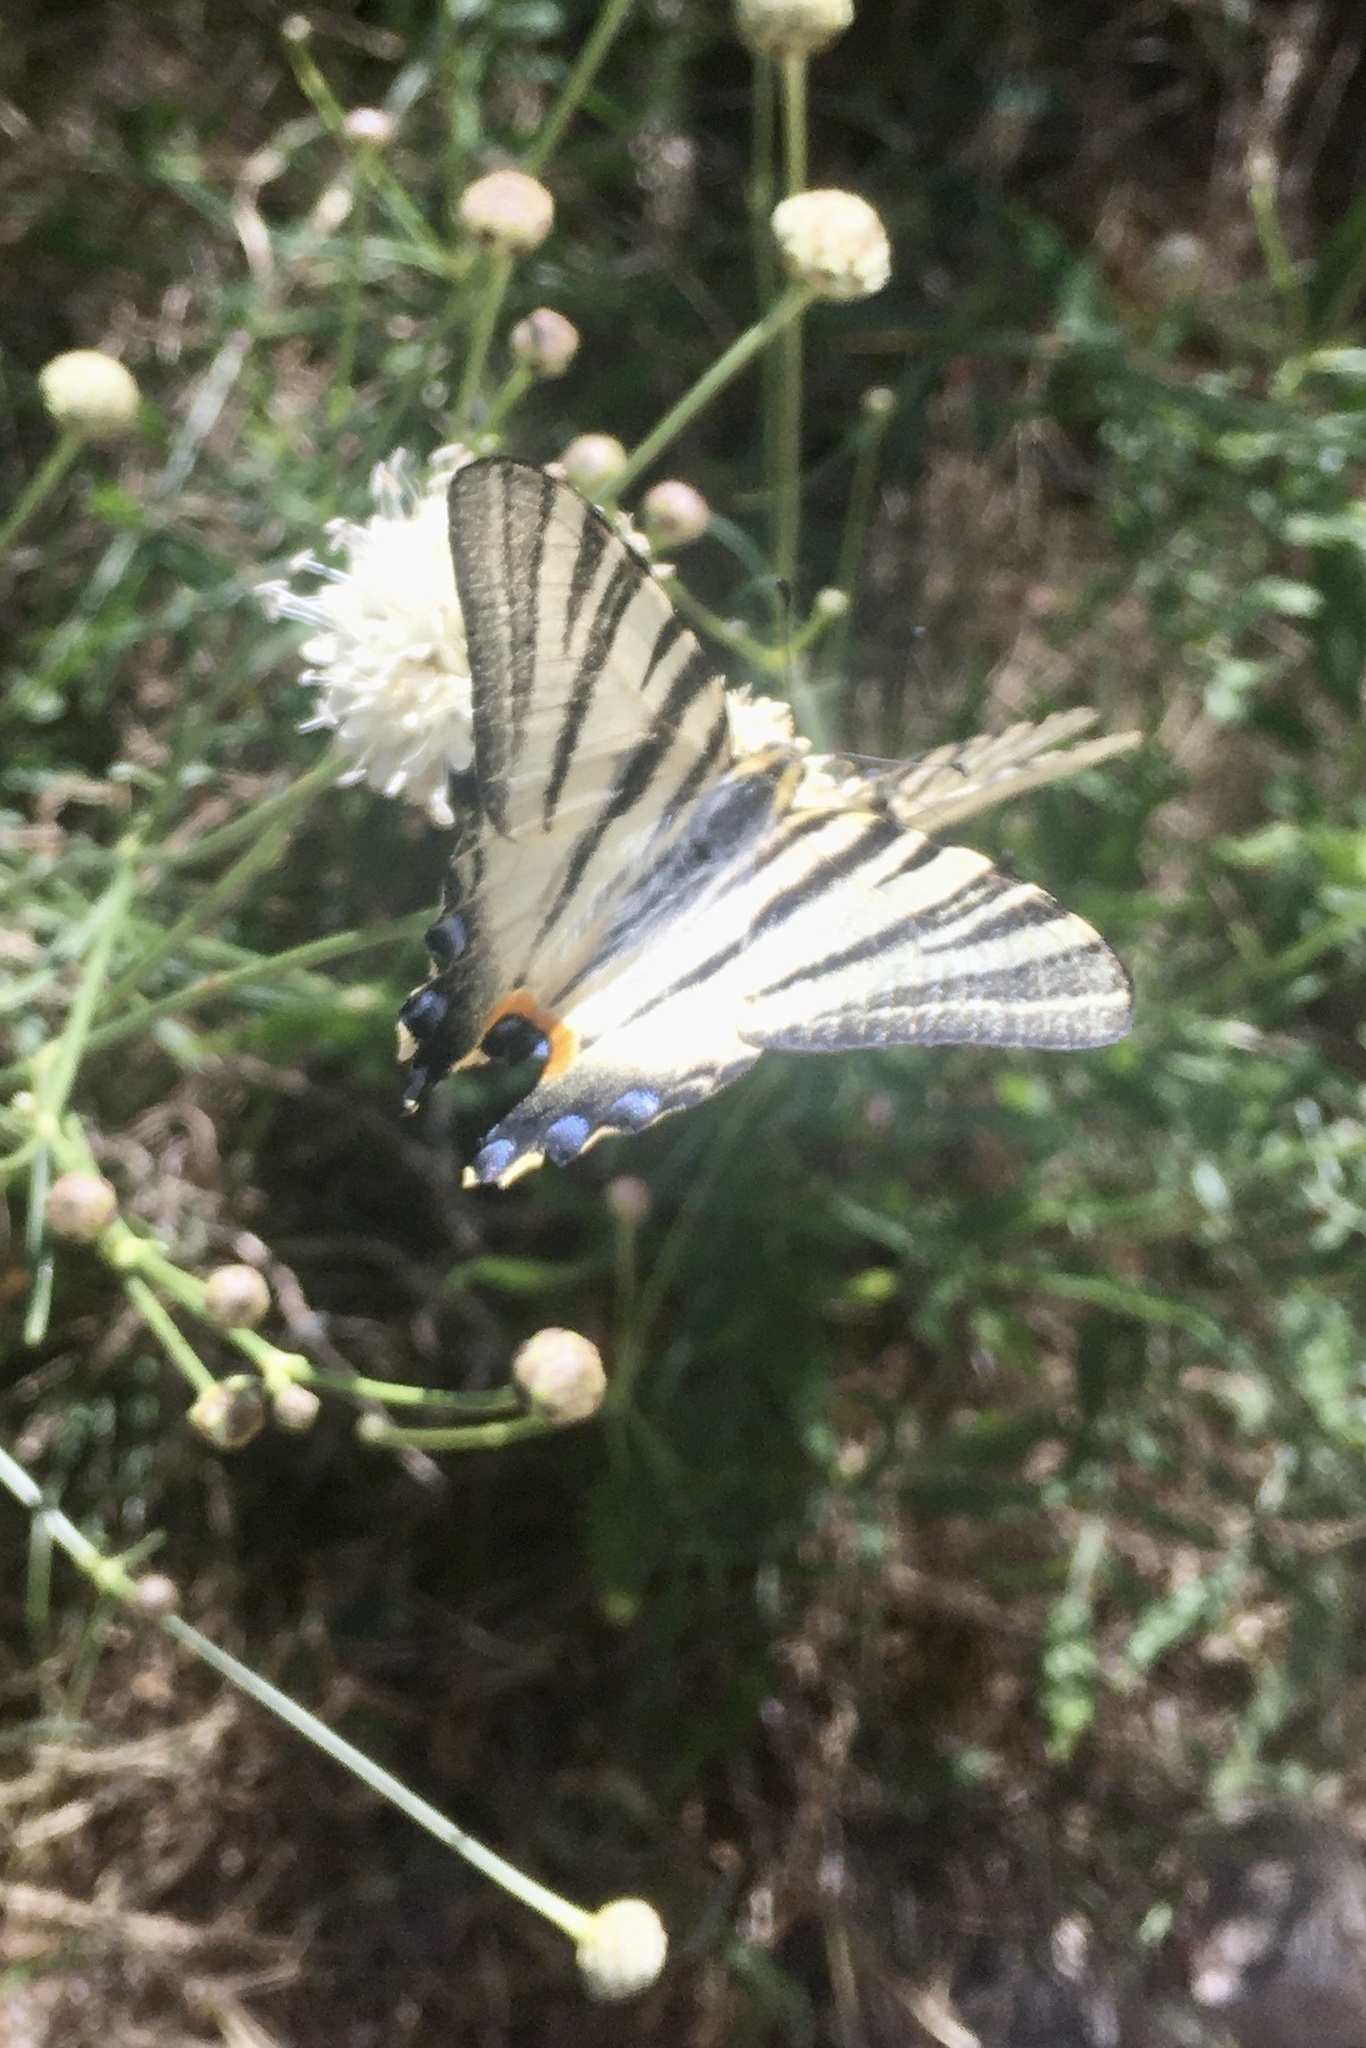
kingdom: Animalia
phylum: Arthropoda
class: Insecta
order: Lepidoptera
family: Papilionidae
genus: Iphiclides
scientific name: Iphiclides podalirius
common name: Scarce swallowtail
